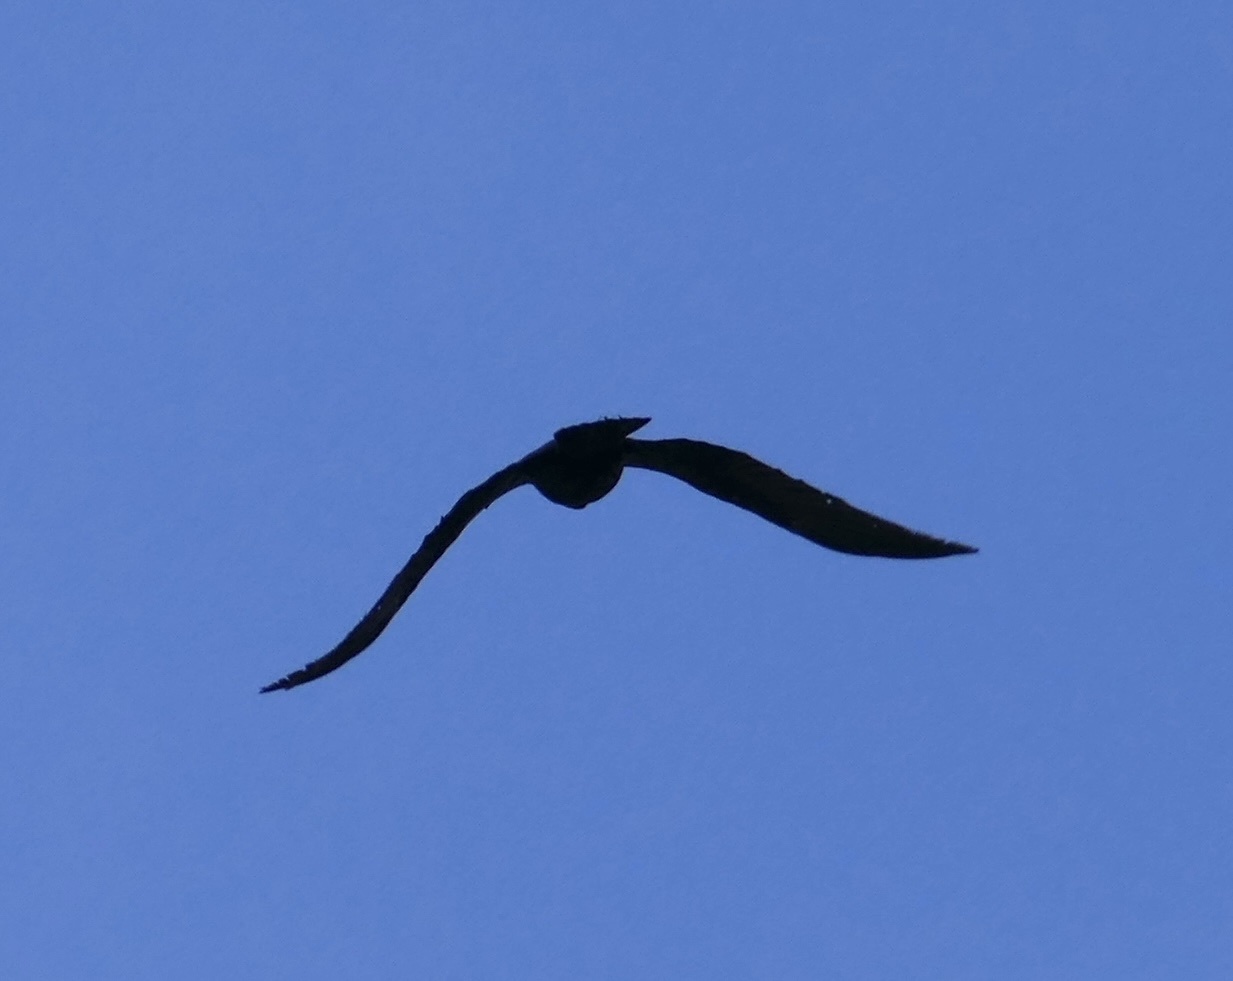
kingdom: Animalia
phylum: Chordata
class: Aves
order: Passeriformes
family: Corvidae
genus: Corvus
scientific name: Corvus ruficollis
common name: Brown-necked raven
